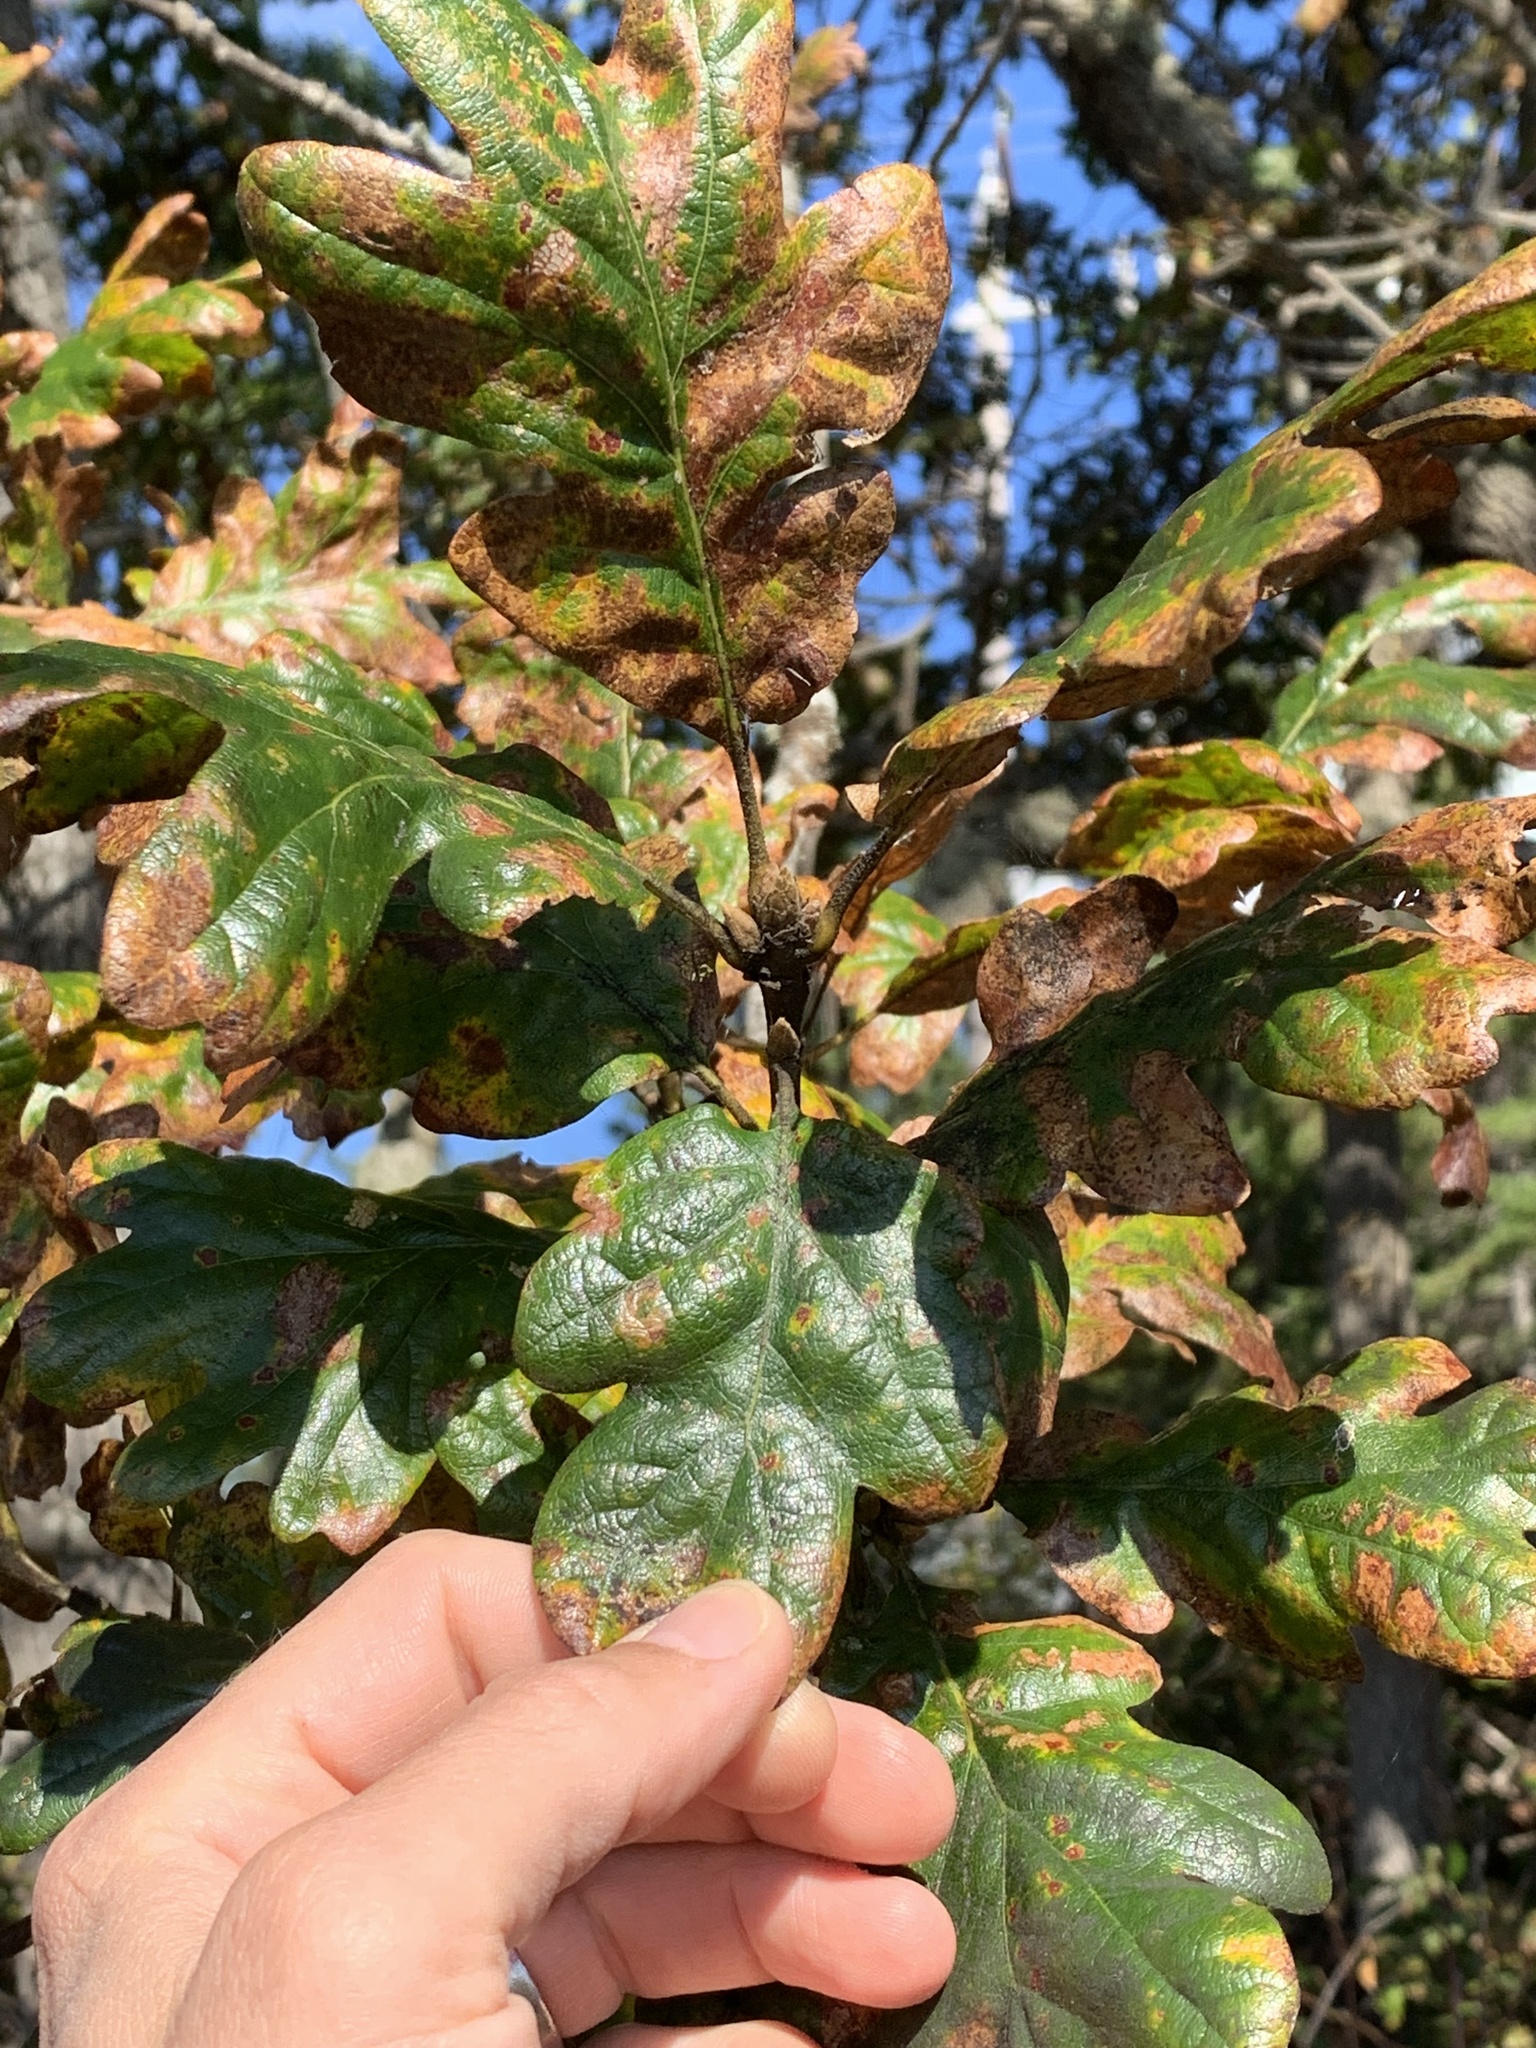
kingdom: Plantae
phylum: Tracheophyta
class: Magnoliopsida
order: Fagales
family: Fagaceae
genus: Quercus
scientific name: Quercus garryana
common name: Garry oak
